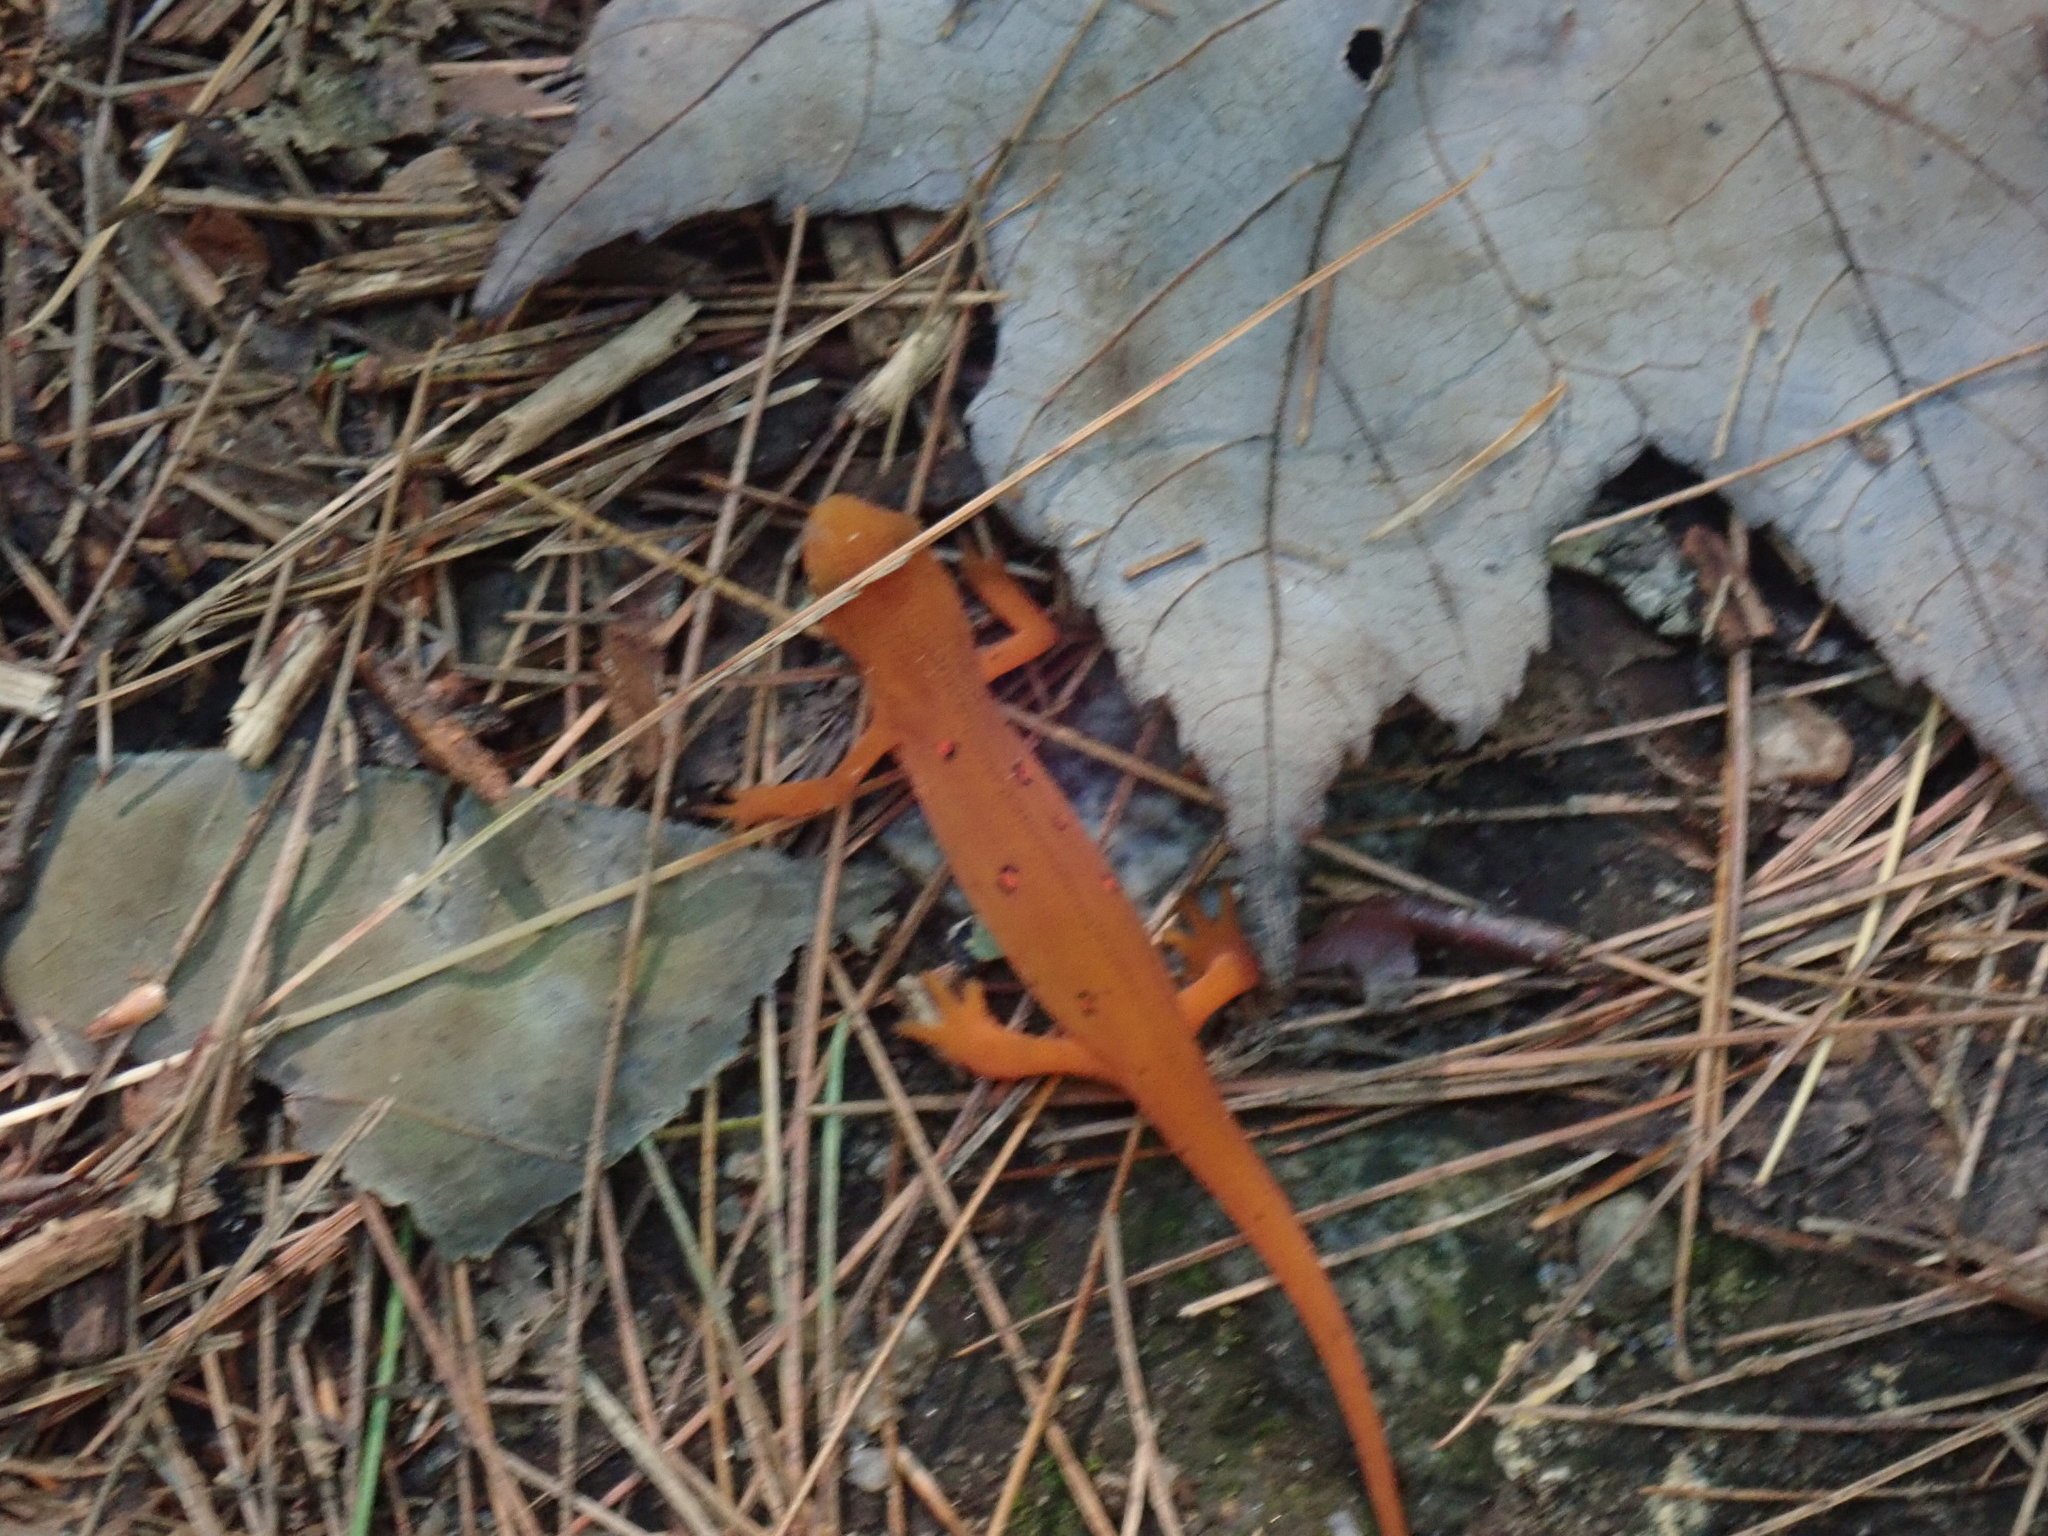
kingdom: Animalia
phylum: Chordata
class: Amphibia
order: Caudata
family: Salamandridae
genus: Notophthalmus
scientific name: Notophthalmus viridescens
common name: Eastern newt
